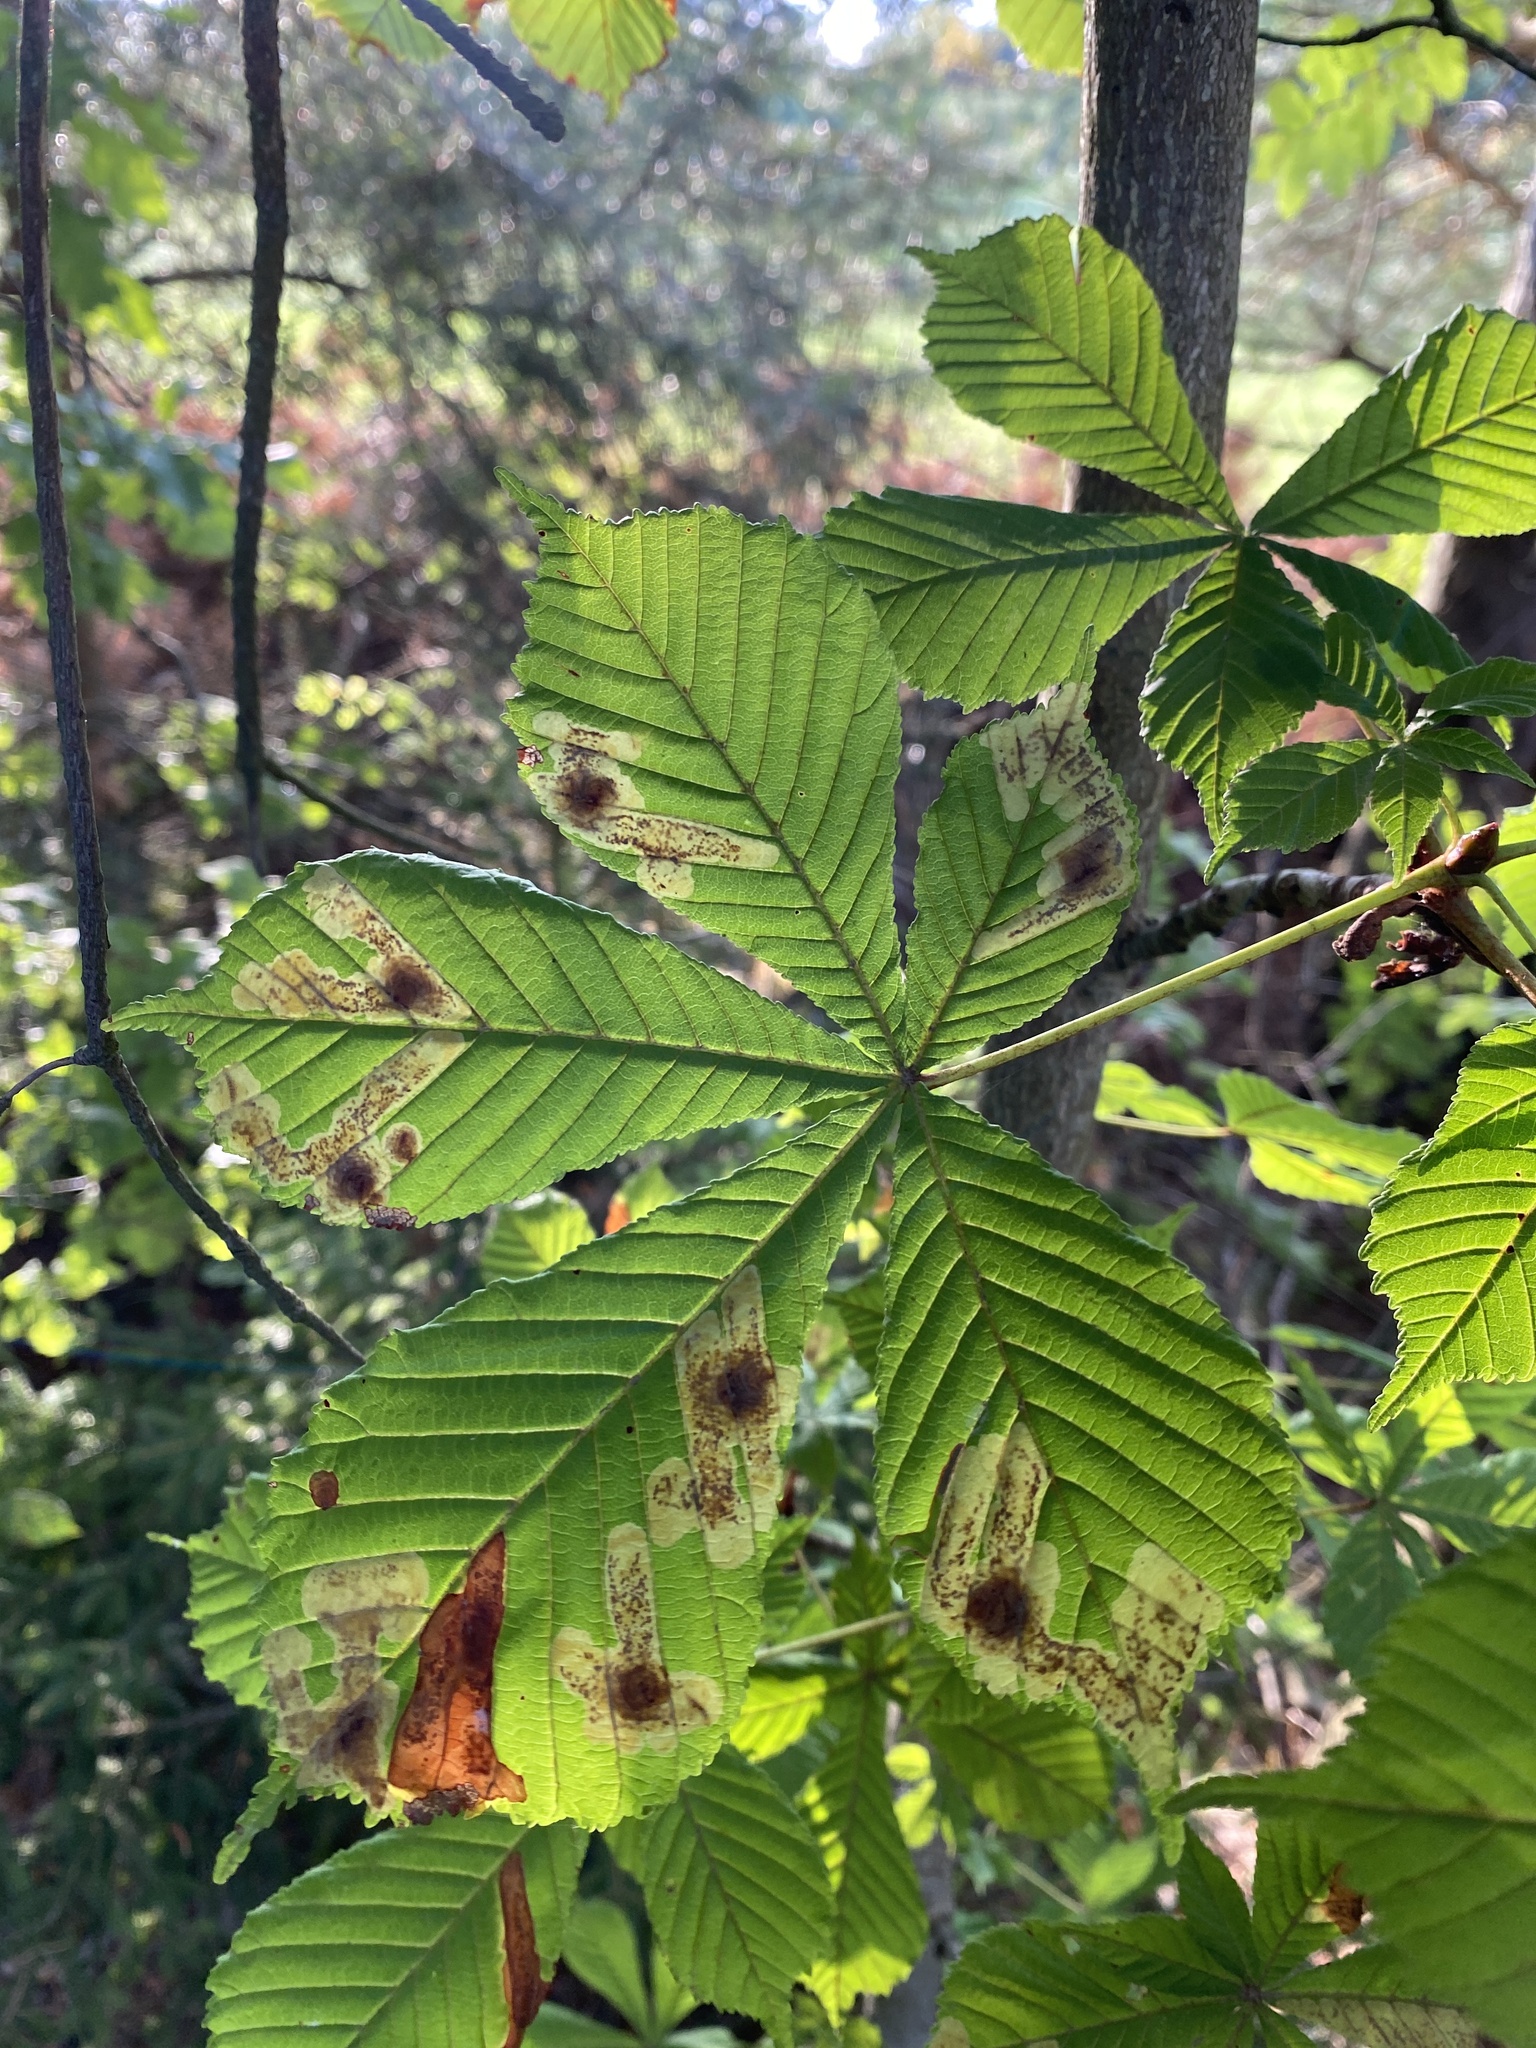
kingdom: Animalia
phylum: Arthropoda
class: Insecta
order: Lepidoptera
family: Gracillariidae
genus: Cameraria
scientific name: Cameraria ohridella
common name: Horse-chestnut leaf-miner
